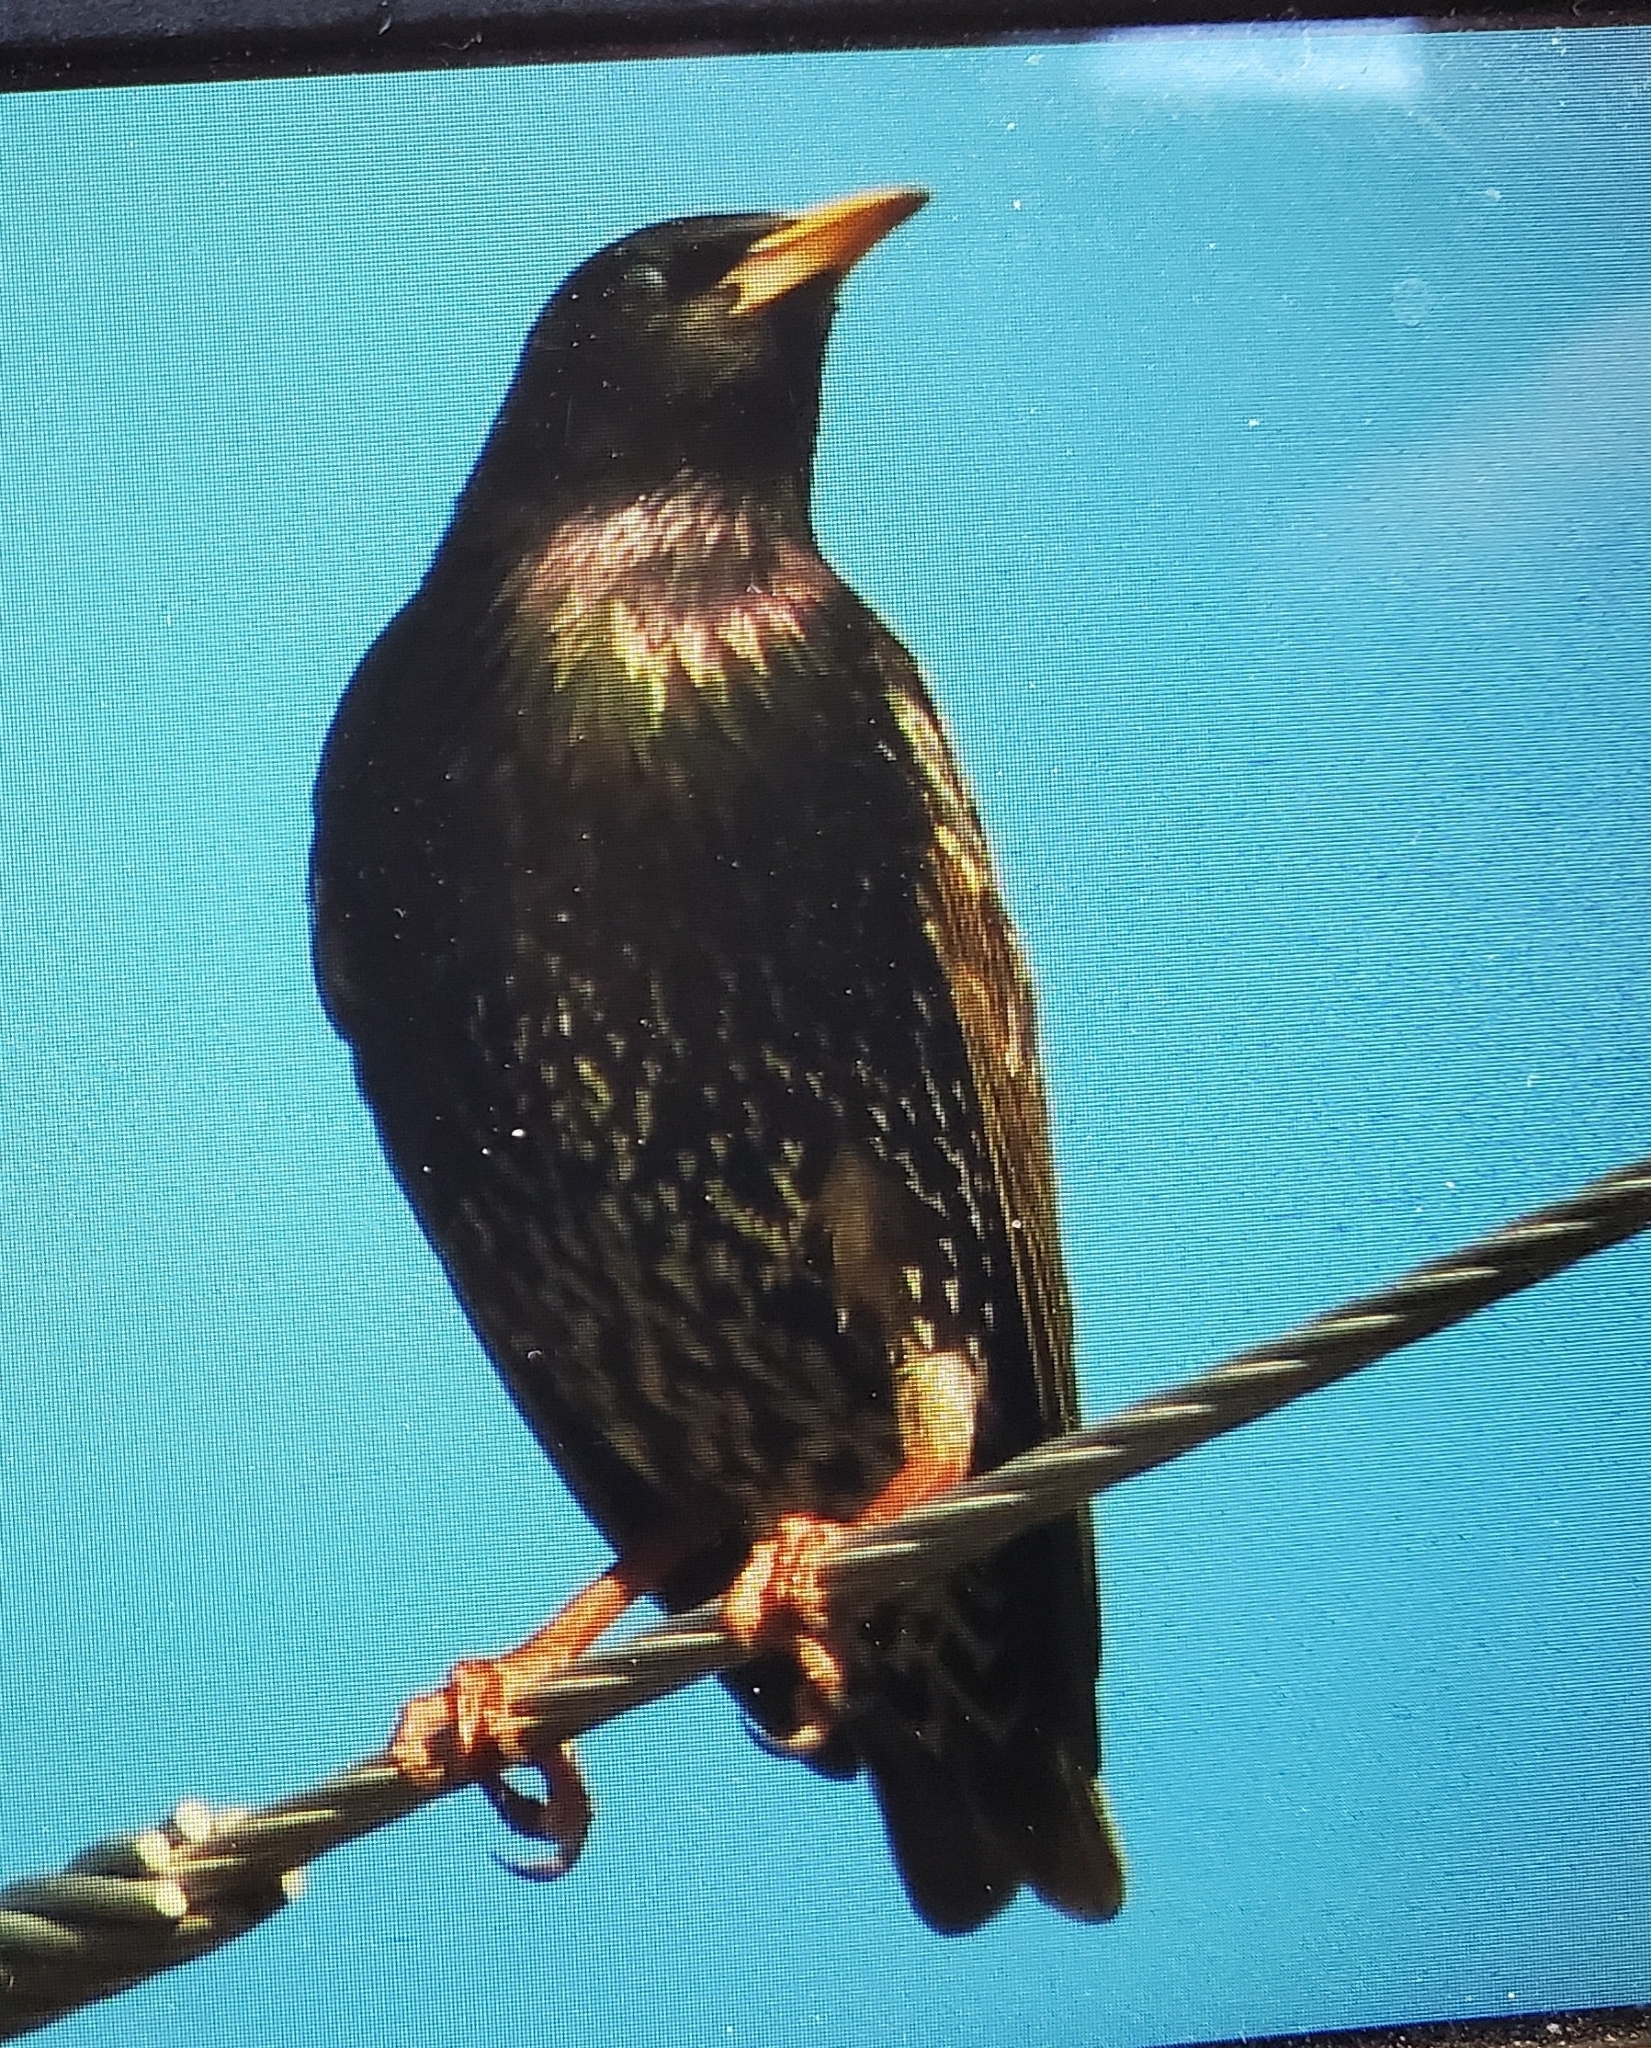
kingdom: Animalia
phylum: Chordata
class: Aves
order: Passeriformes
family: Sturnidae
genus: Sturnus
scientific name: Sturnus vulgaris
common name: Common starling
